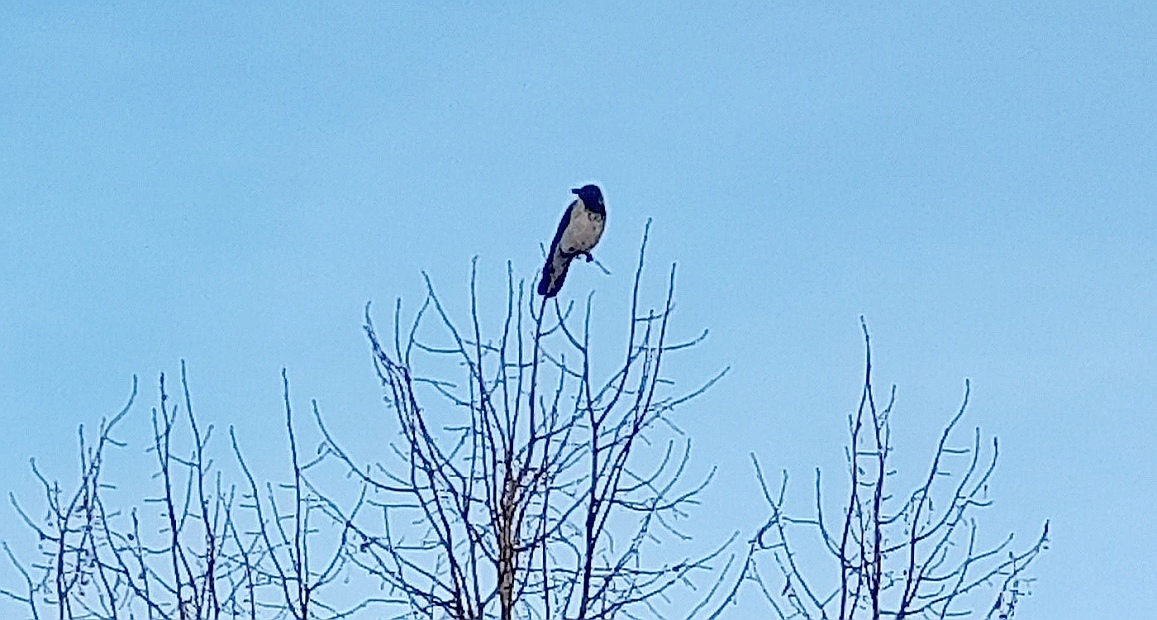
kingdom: Animalia
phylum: Chordata
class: Aves
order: Passeriformes
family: Corvidae
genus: Corvus
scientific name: Corvus cornix
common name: Hooded crow
